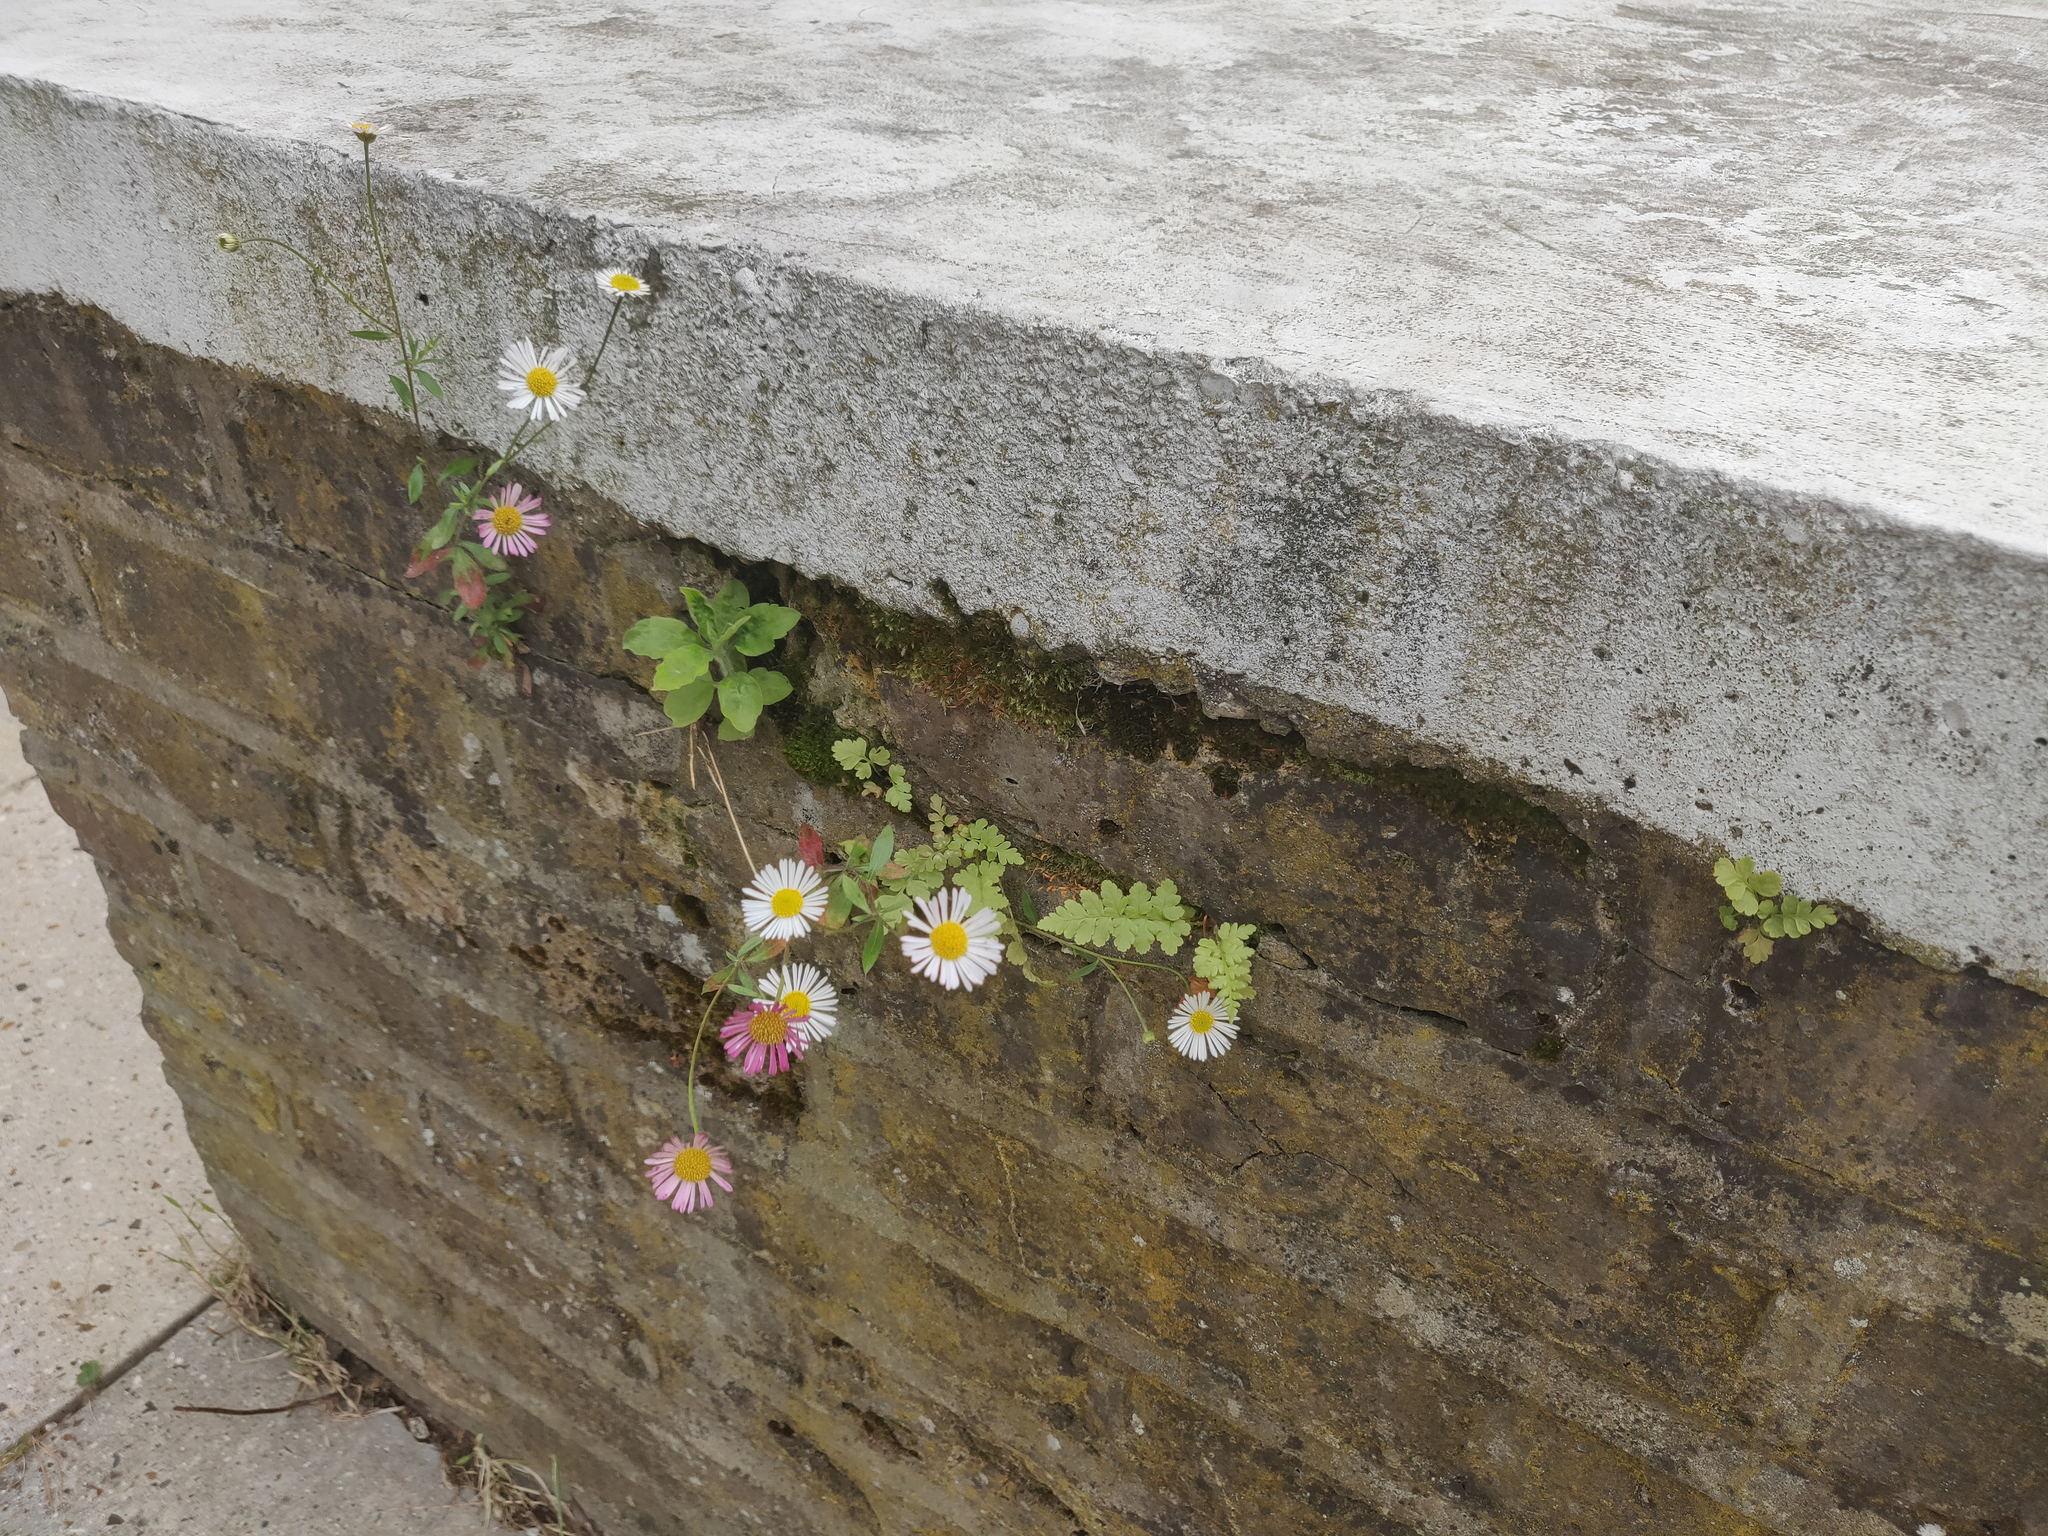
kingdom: Plantae
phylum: Tracheophyta
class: Magnoliopsida
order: Asterales
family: Asteraceae
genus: Erigeron
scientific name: Erigeron karvinskianus
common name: Mexican fleabane
